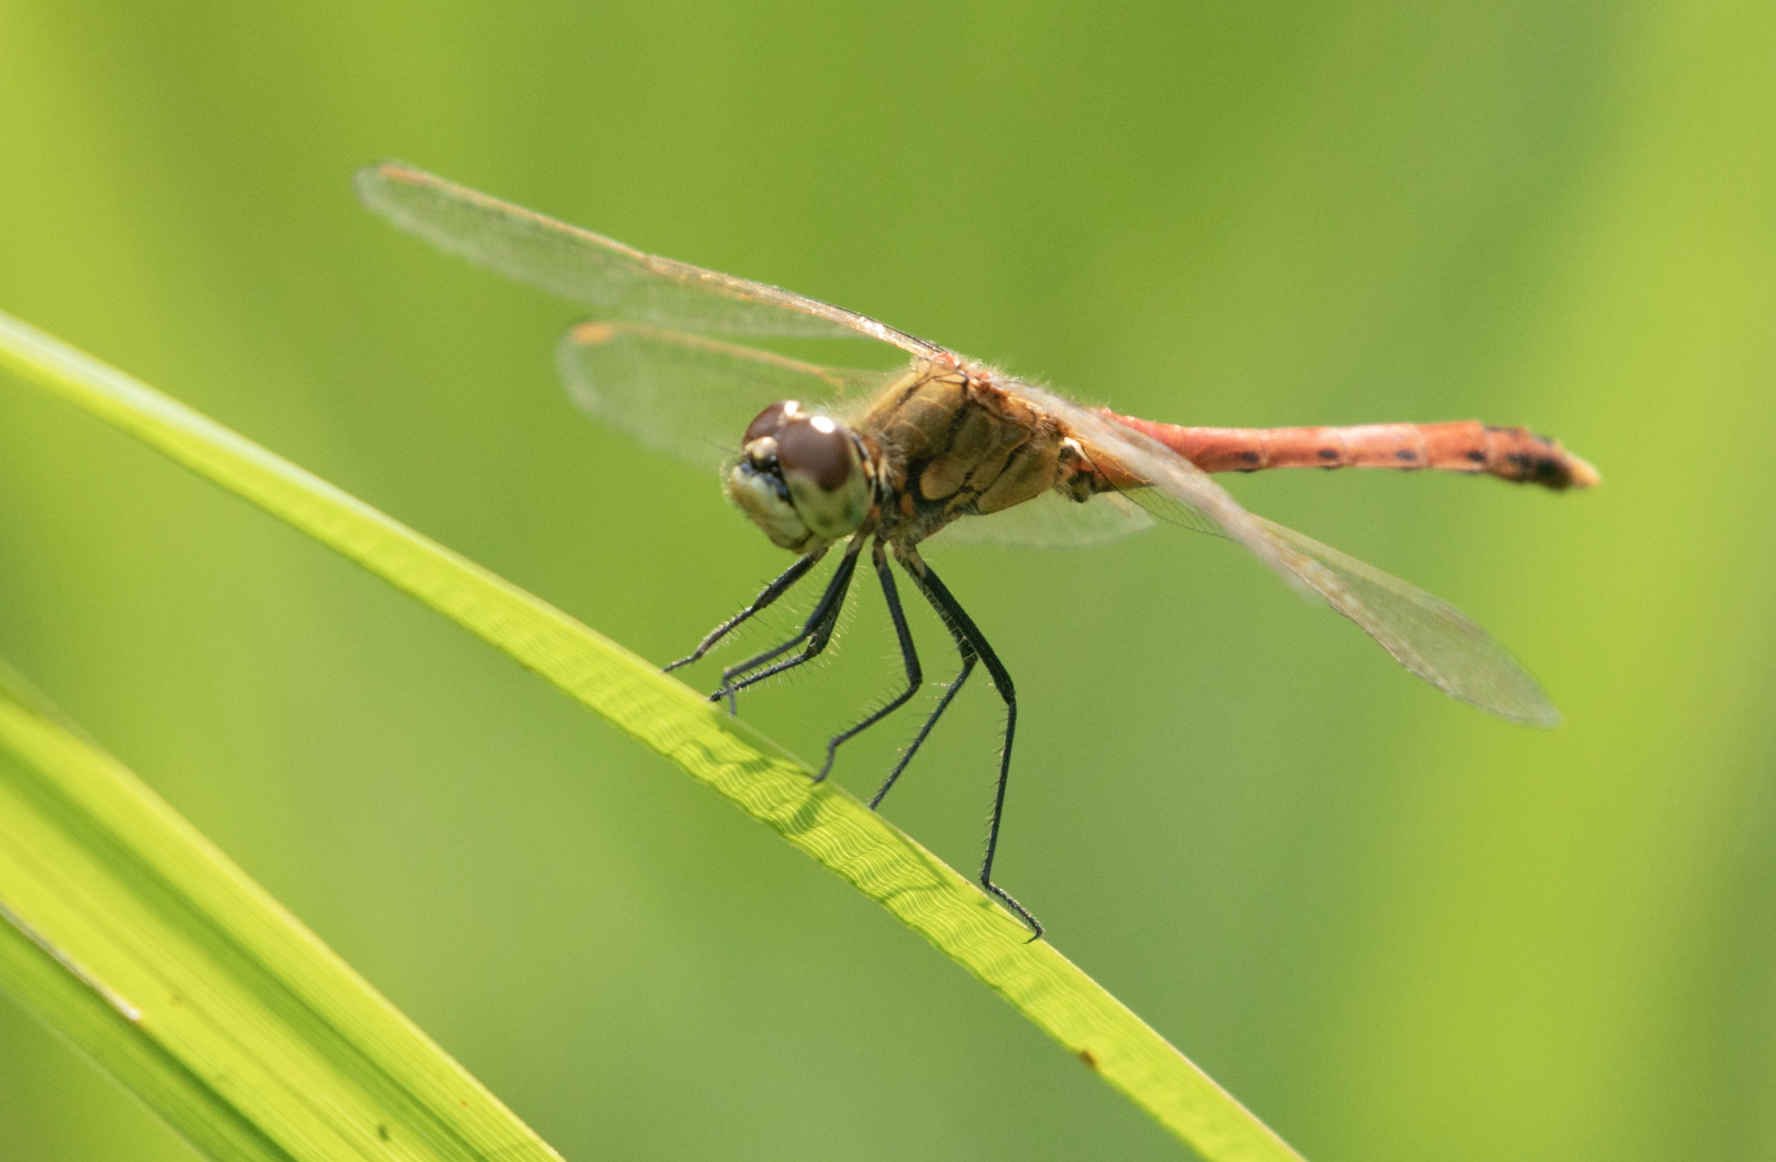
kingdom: Animalia
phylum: Arthropoda
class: Insecta
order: Odonata
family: Libellulidae
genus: Sympetrum
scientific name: Sympetrum depressiusculum
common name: Spotted darter
